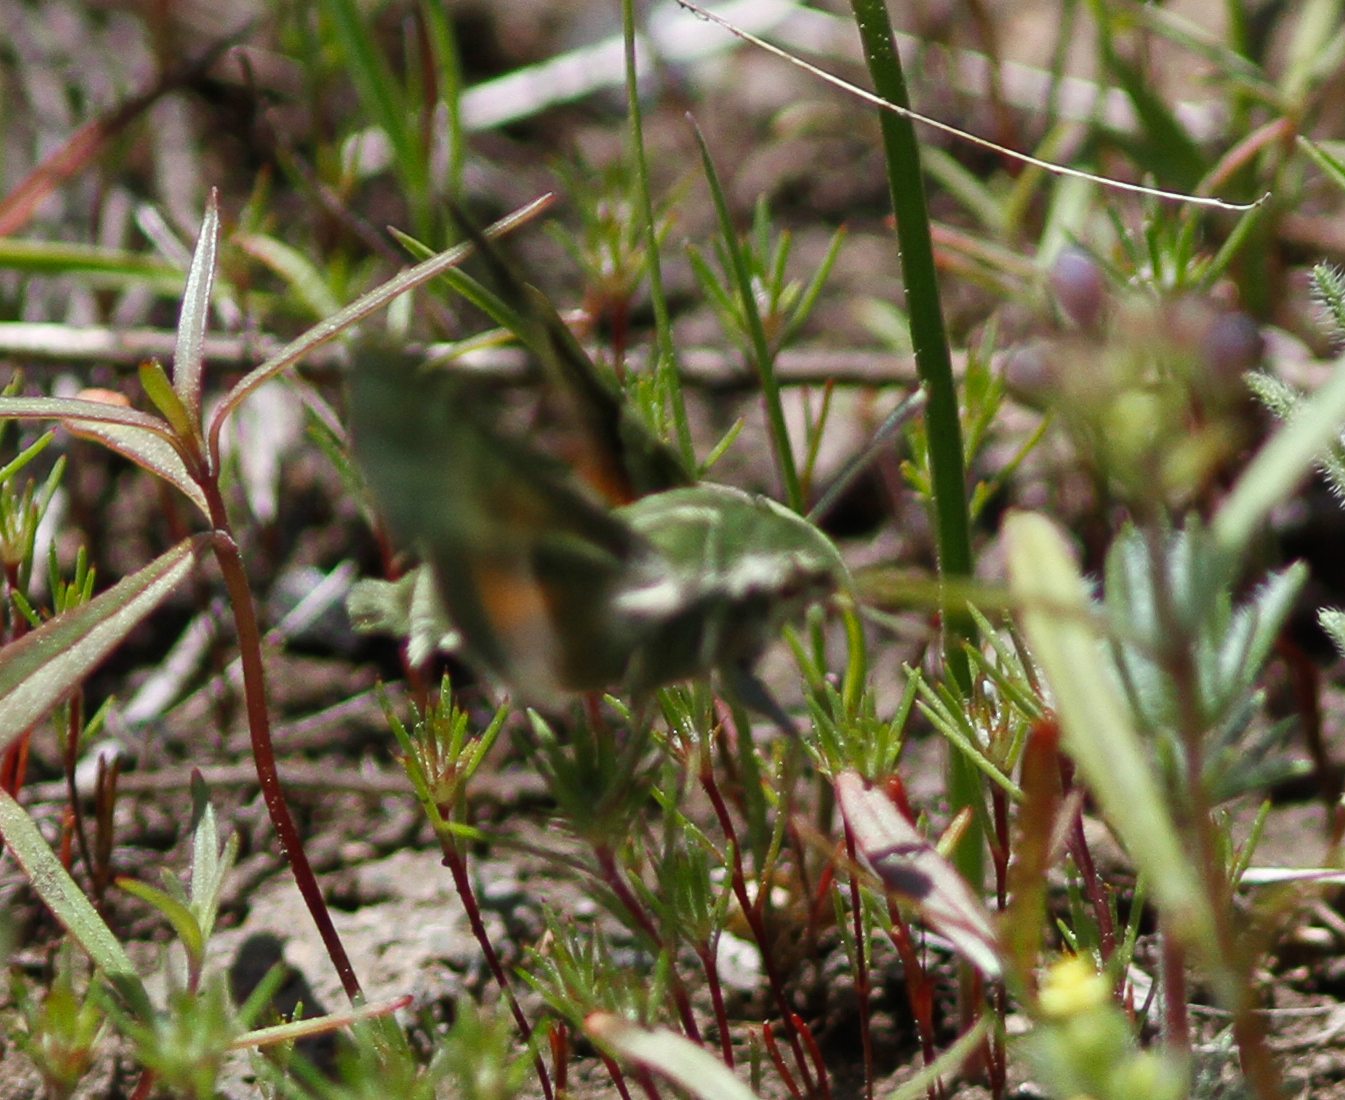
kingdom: Animalia
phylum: Arthropoda
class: Insecta
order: Lepidoptera
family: Sphingidae
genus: Proserpinus
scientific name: Proserpinus clarkiae
